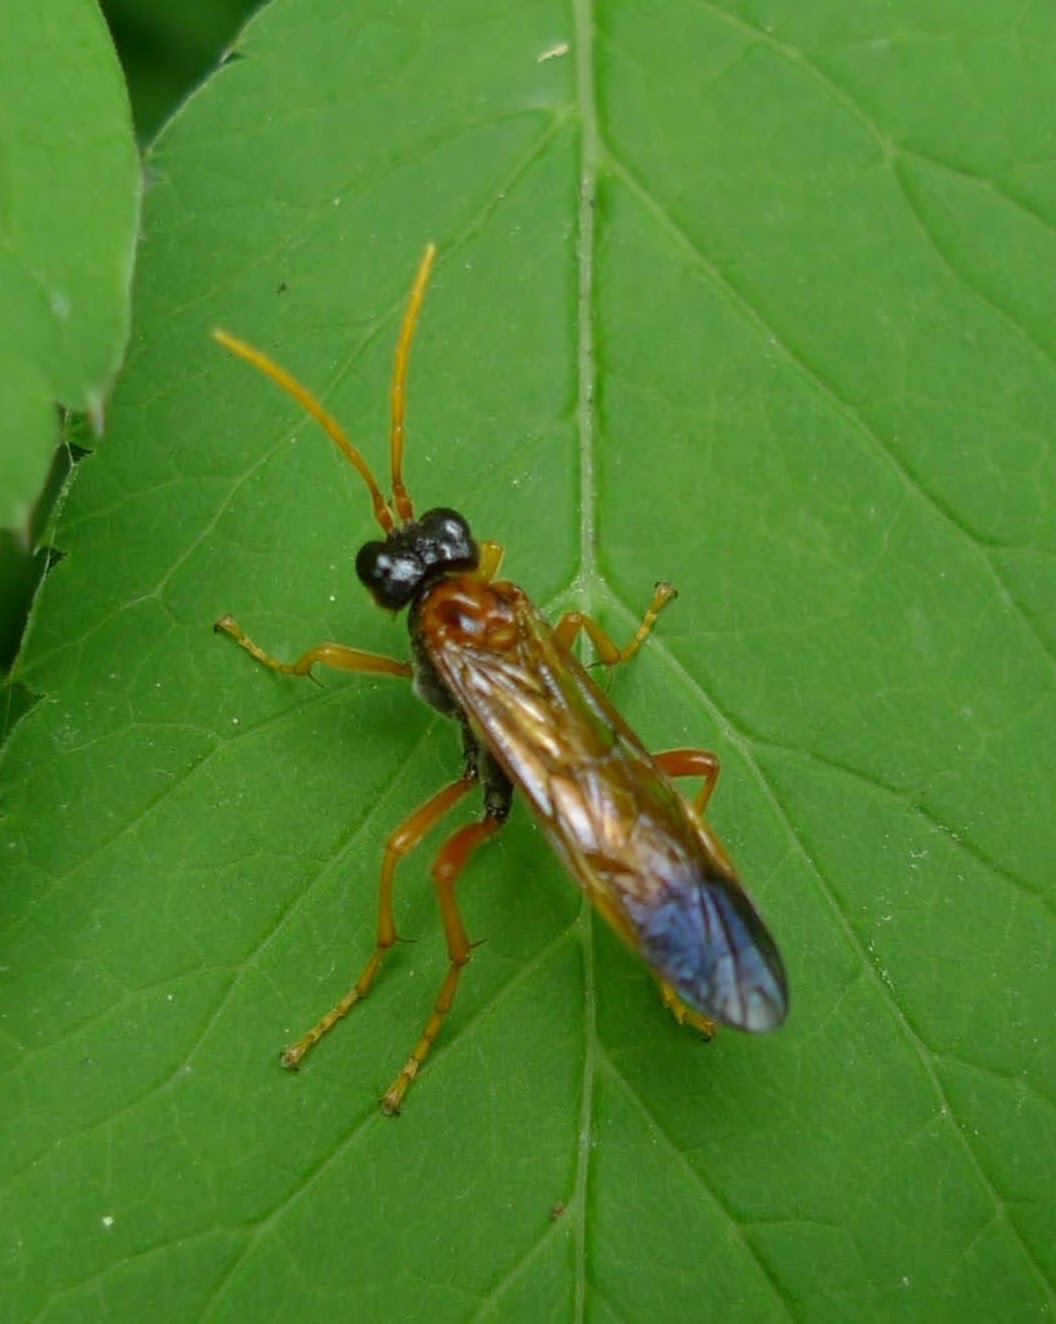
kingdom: Animalia
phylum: Arthropoda
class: Insecta
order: Hymenoptera
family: Tenthredinidae
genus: Tenthredo
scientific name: Tenthredo campestris
